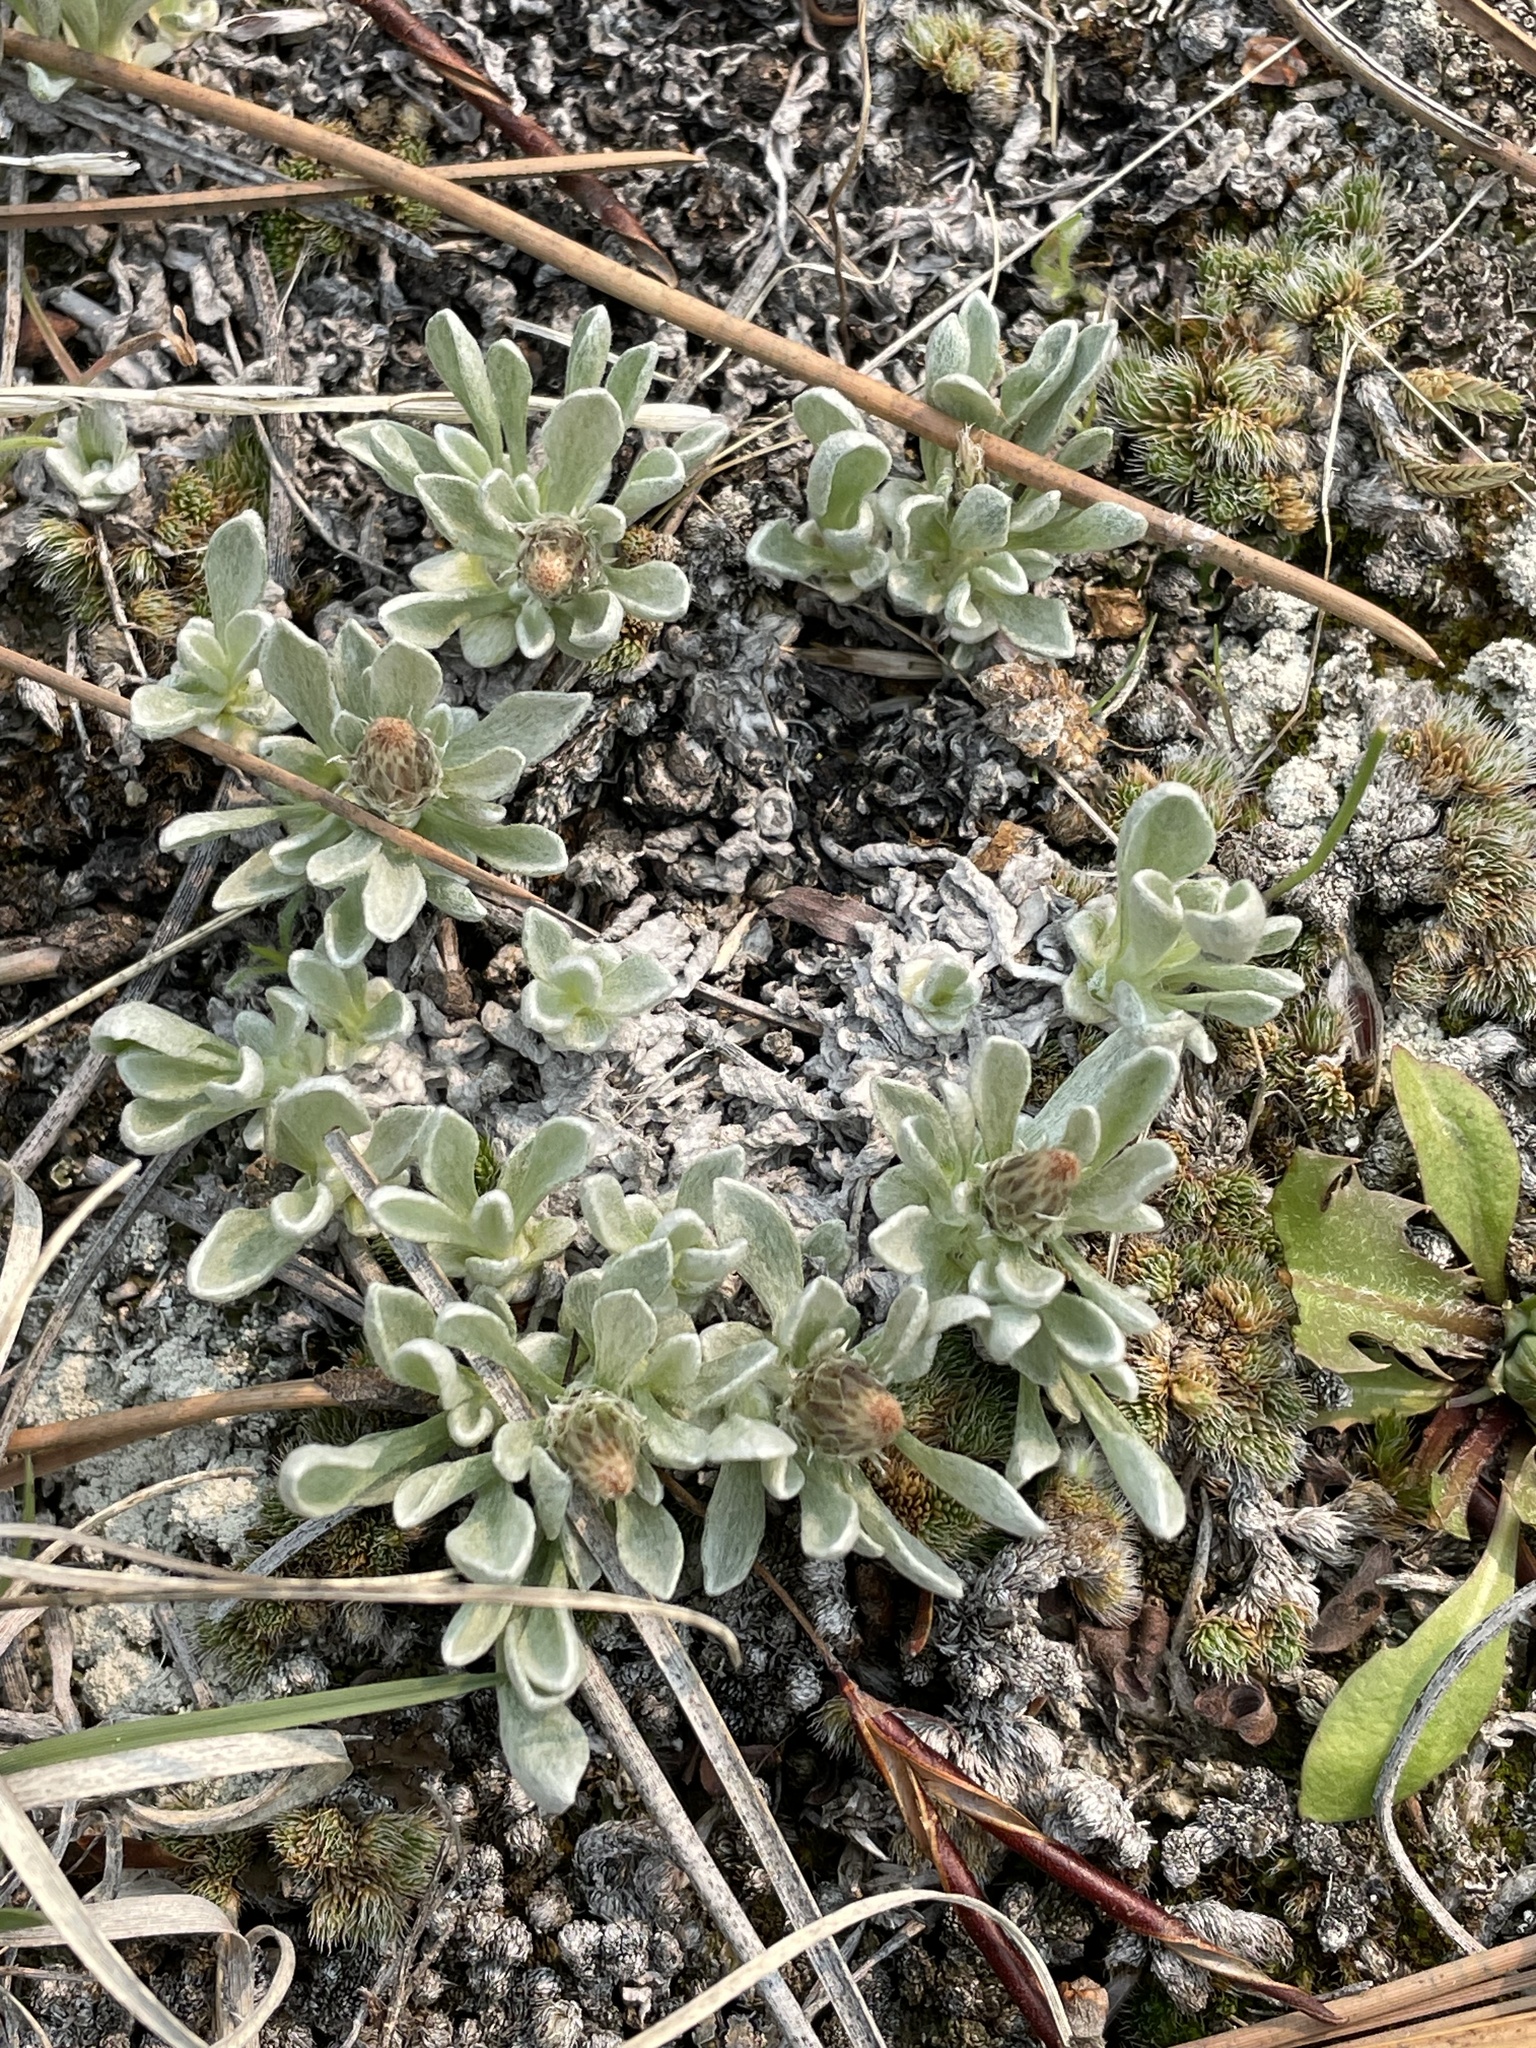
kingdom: Plantae
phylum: Tracheophyta
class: Magnoliopsida
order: Asterales
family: Asteraceae
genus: Antennaria
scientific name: Antennaria dimorpha
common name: Cushion pussytoes
